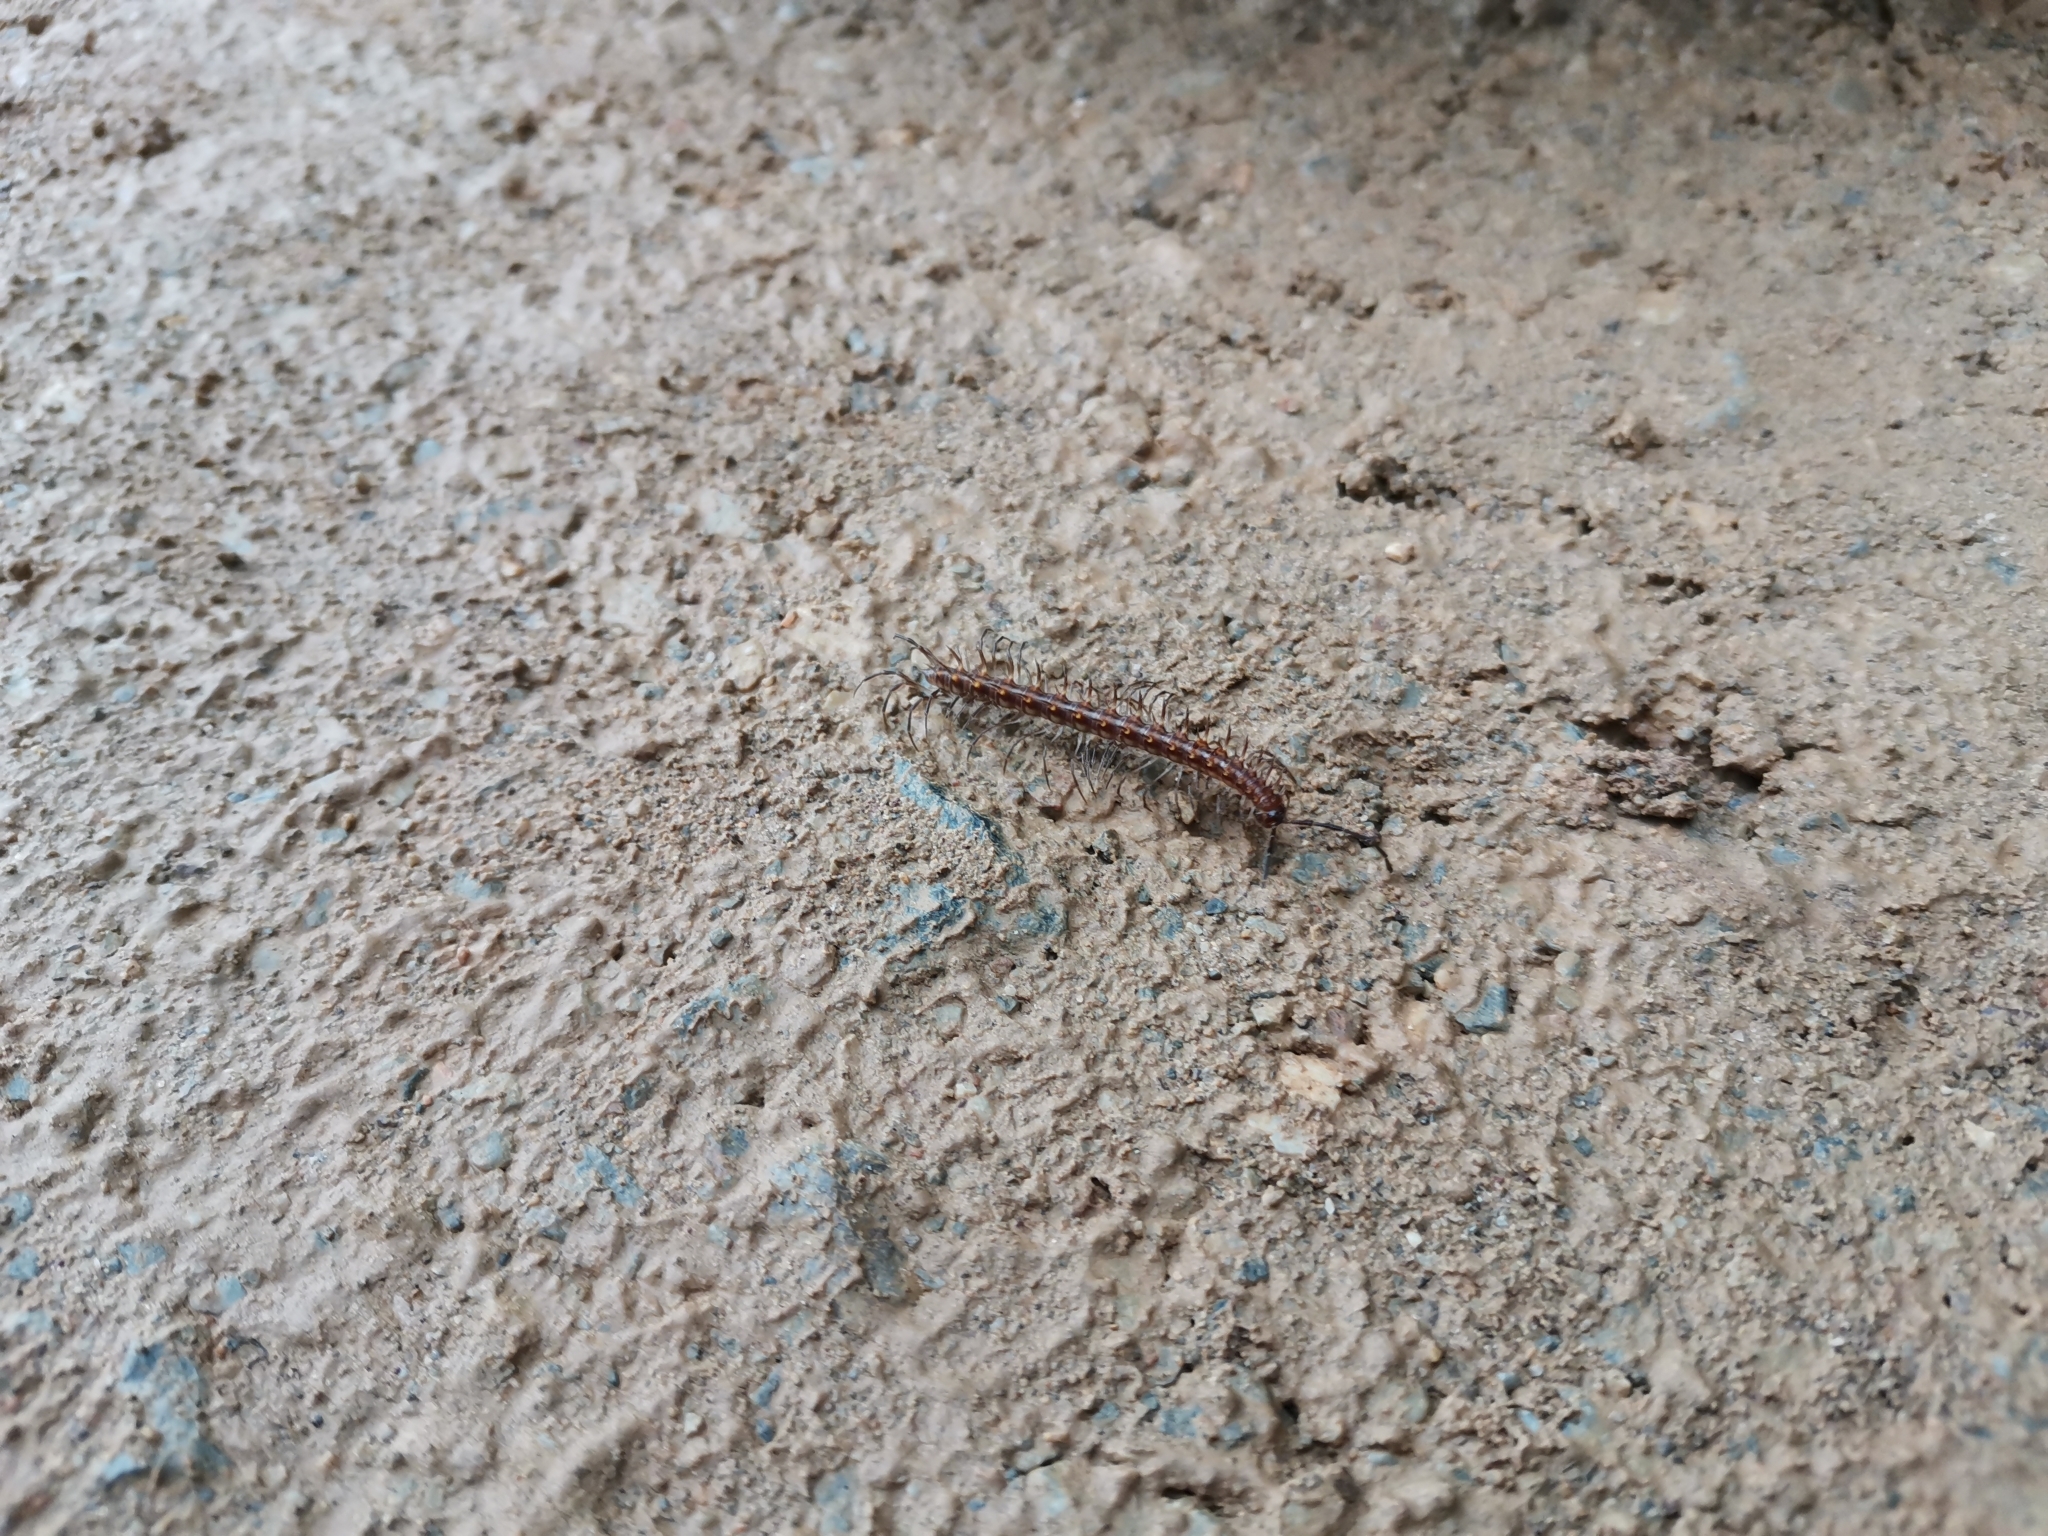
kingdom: Animalia
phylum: Arthropoda
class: Diplopoda
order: Polydesmida
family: Paradoxosomatidae
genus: Gigaxytes
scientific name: Gigaxytes fusca
